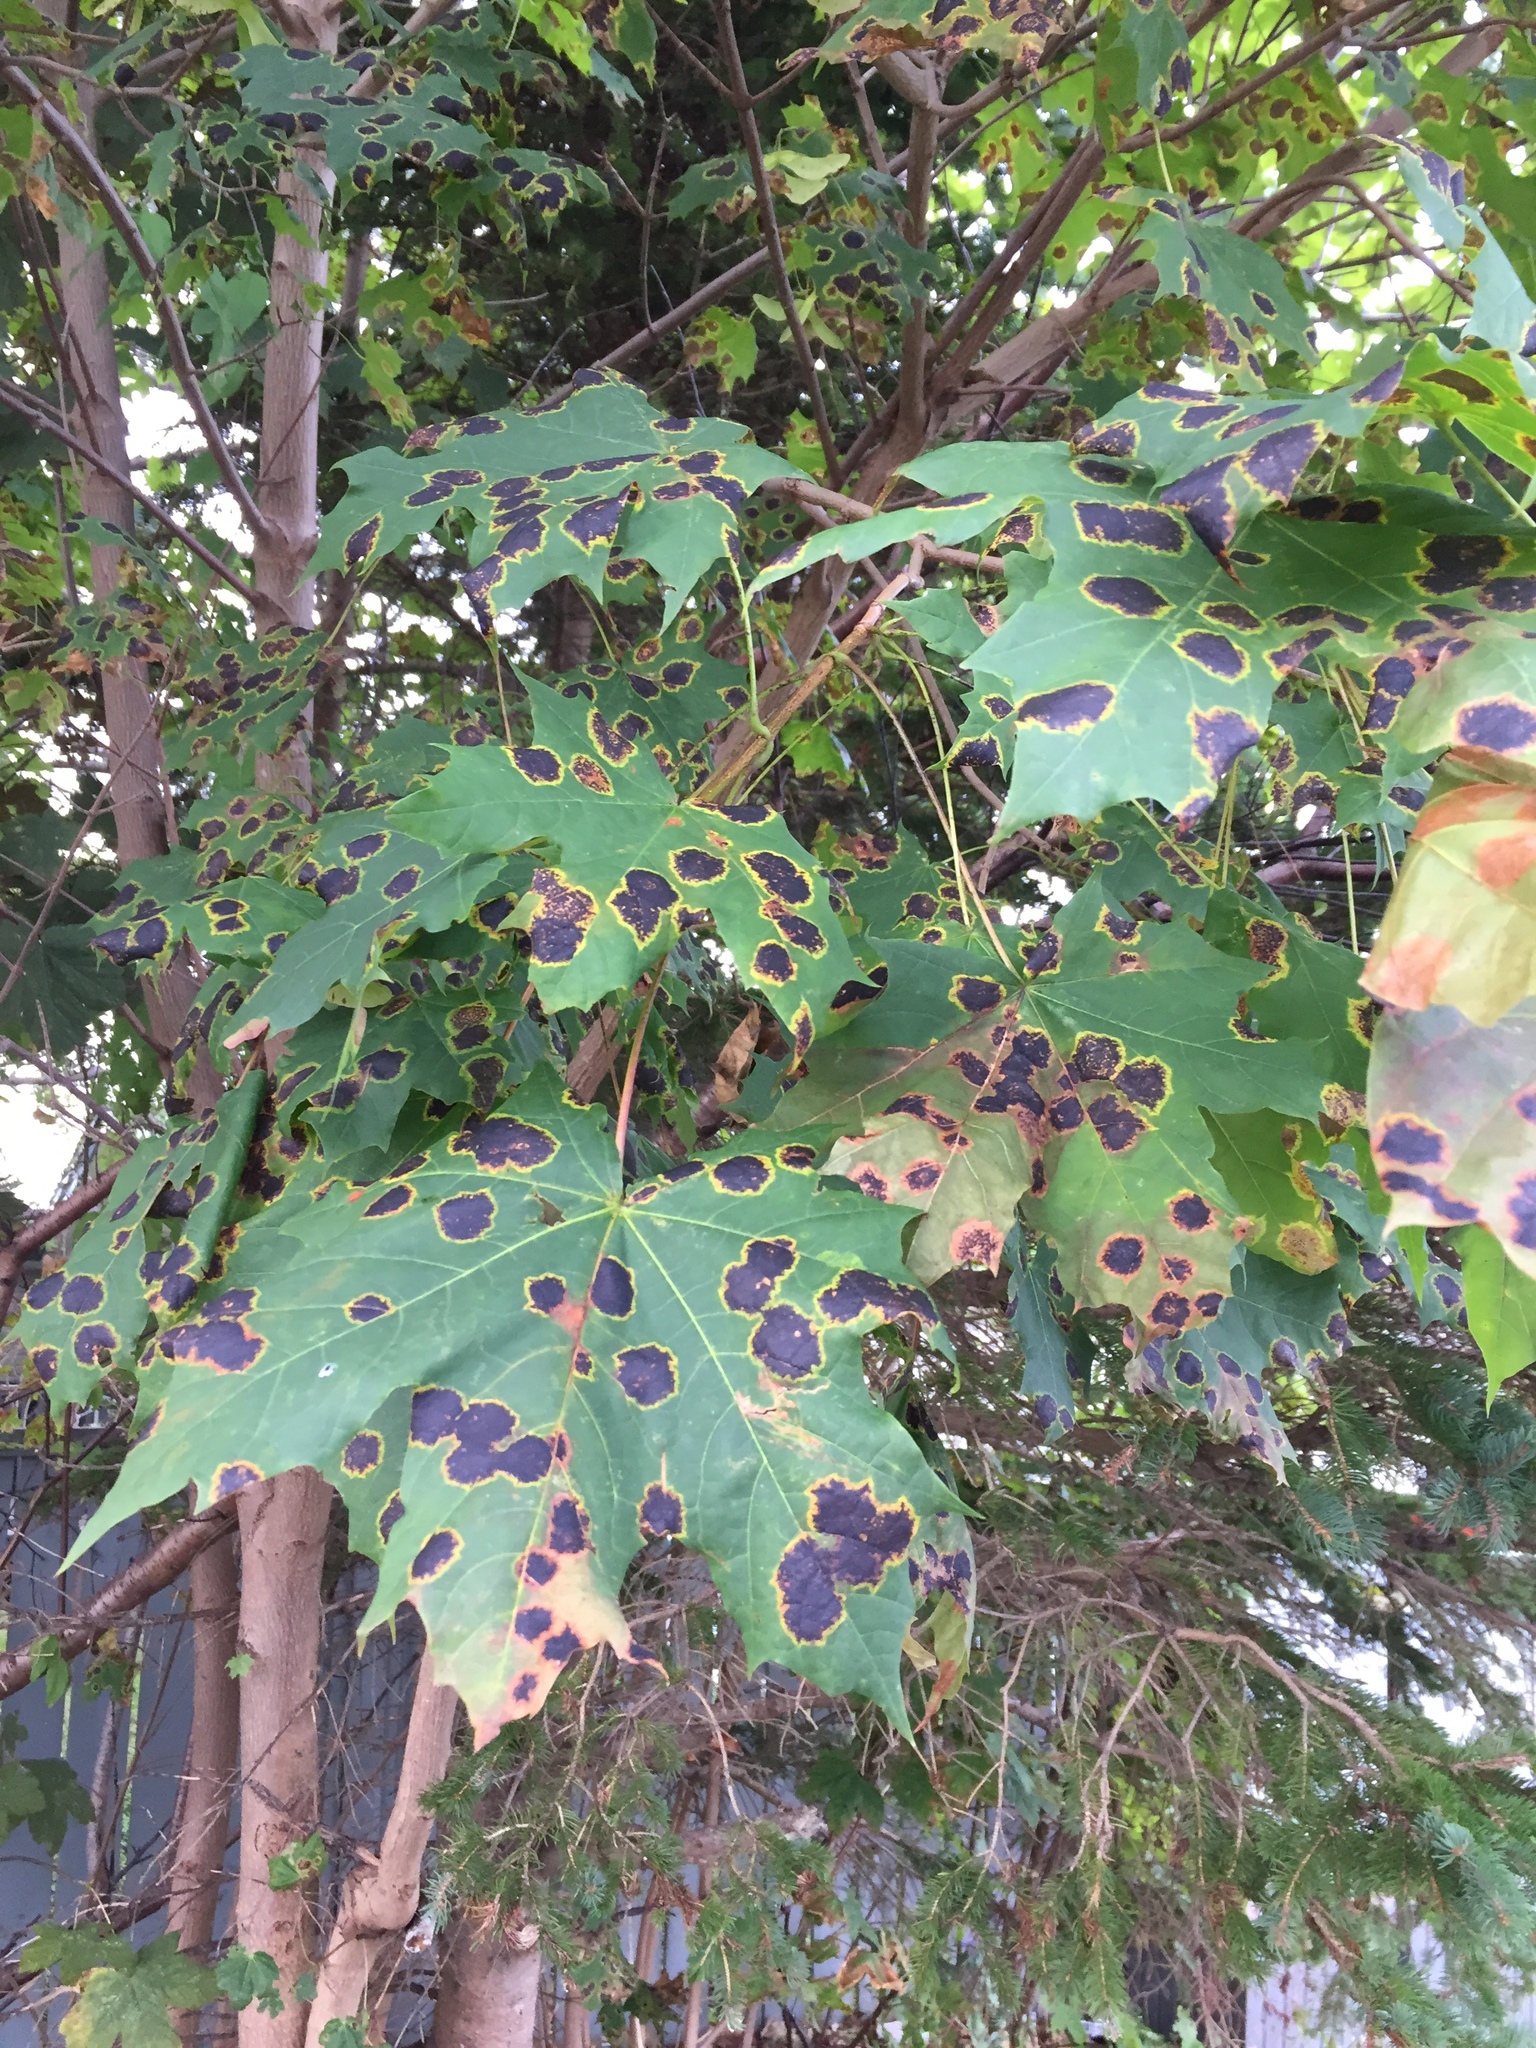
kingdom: Fungi
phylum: Ascomycota
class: Leotiomycetes
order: Rhytismatales
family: Rhytismataceae
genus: Rhytisma
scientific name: Rhytisma acerinum
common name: European tar spot
